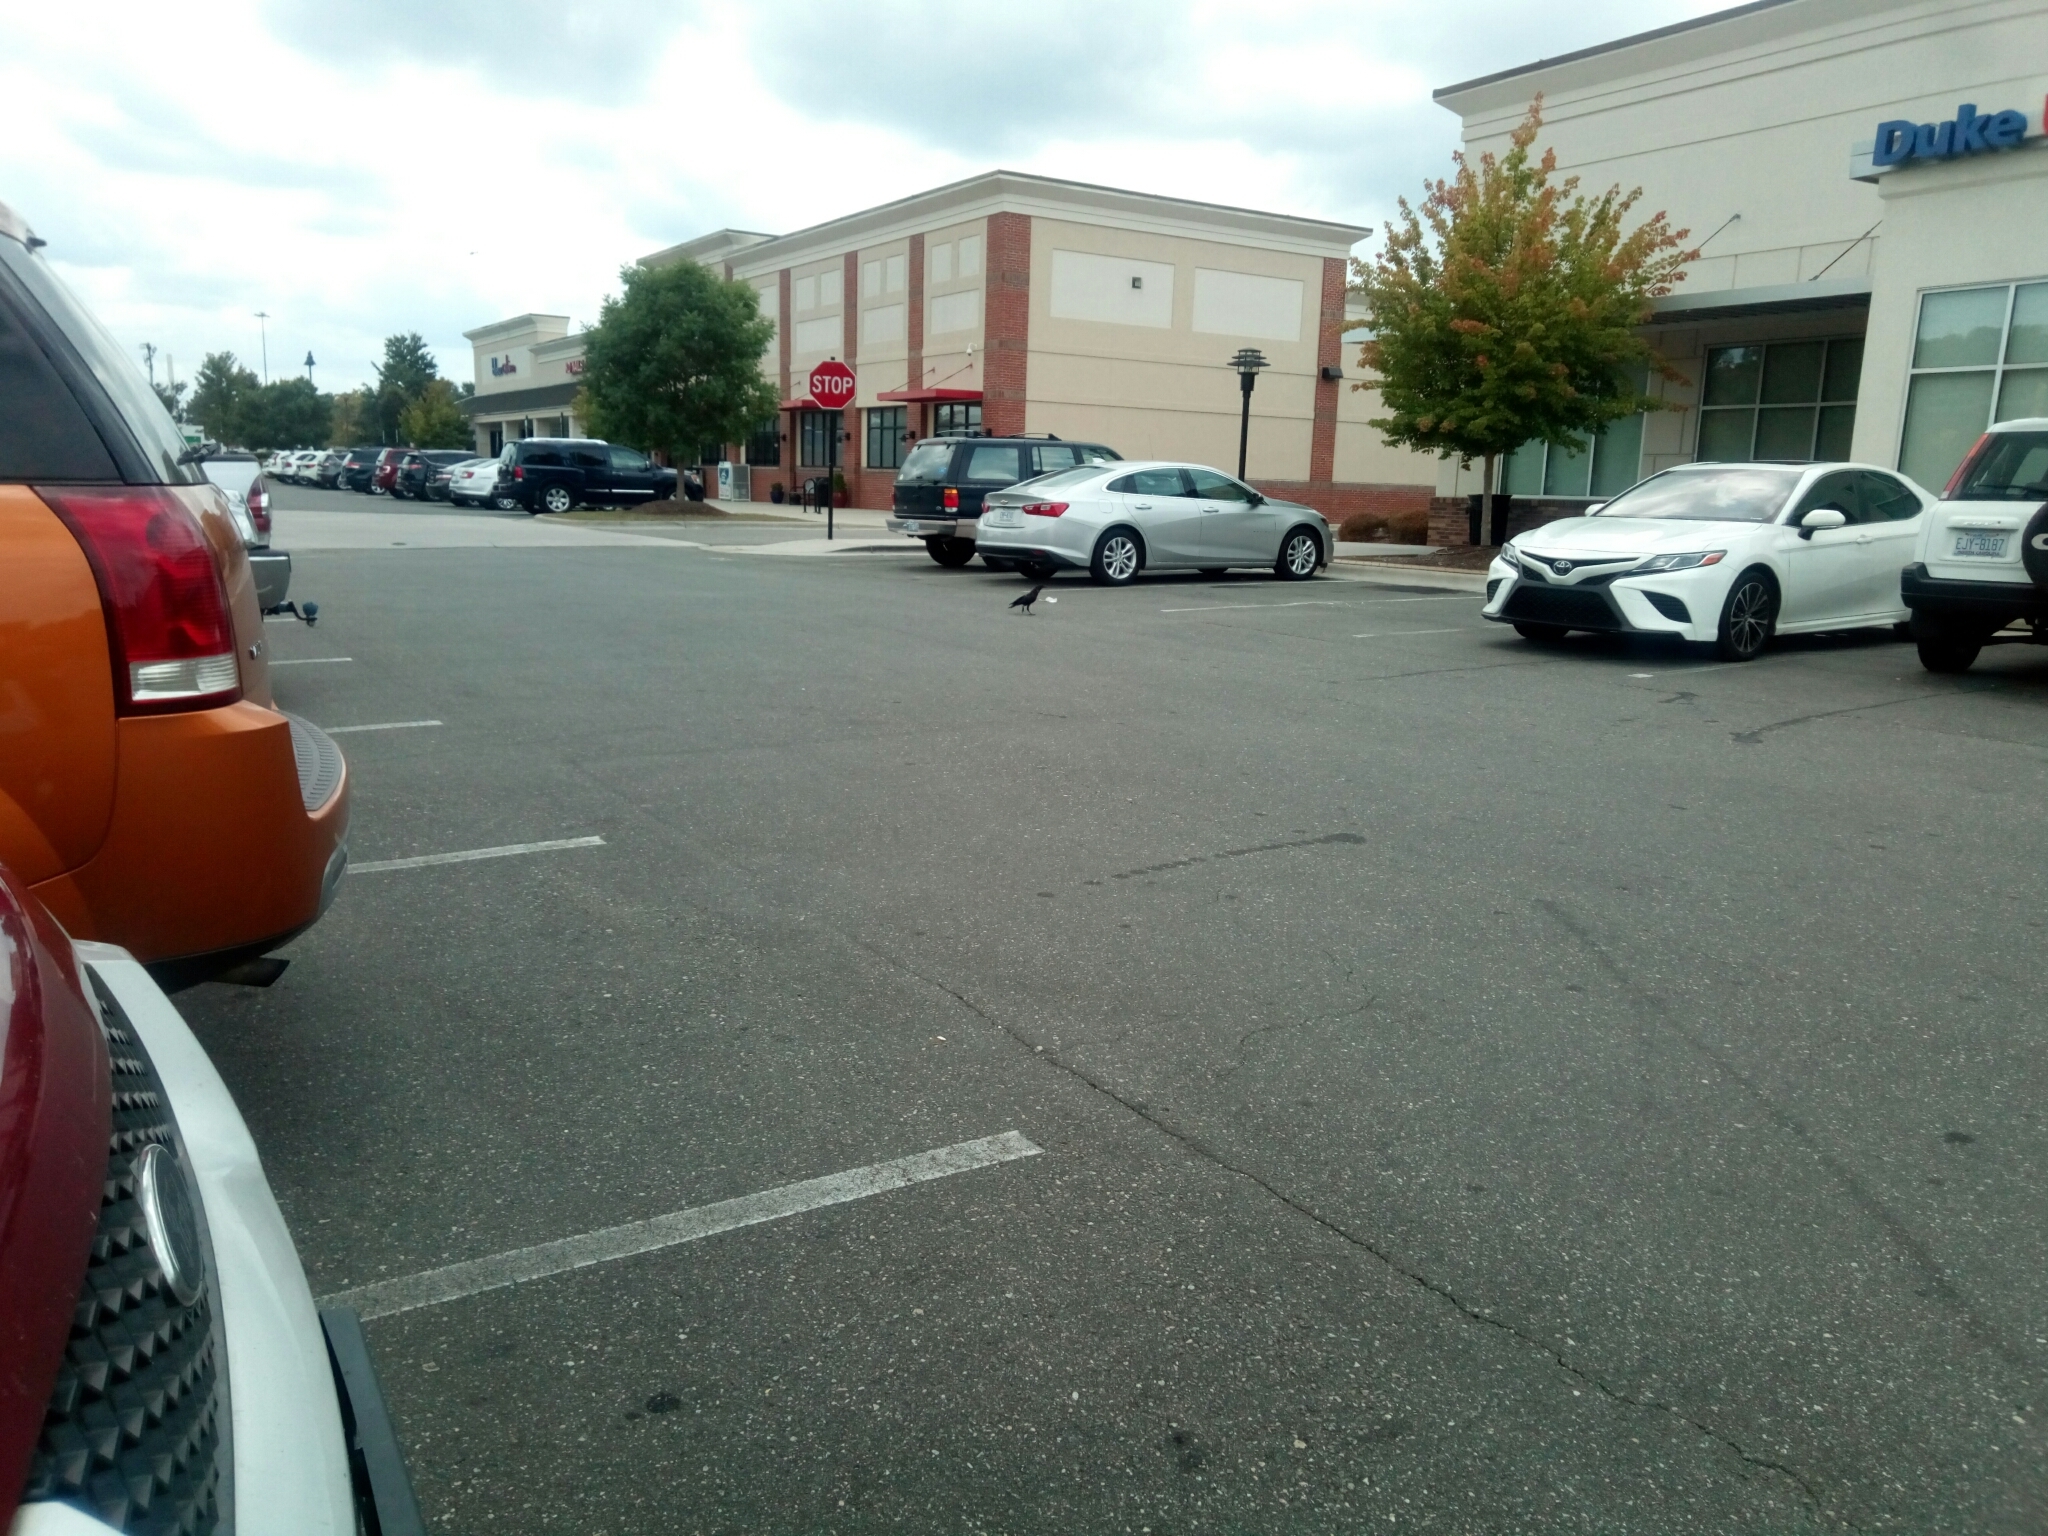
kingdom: Animalia
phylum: Chordata
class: Aves
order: Passeriformes
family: Corvidae
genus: Corvus
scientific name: Corvus
